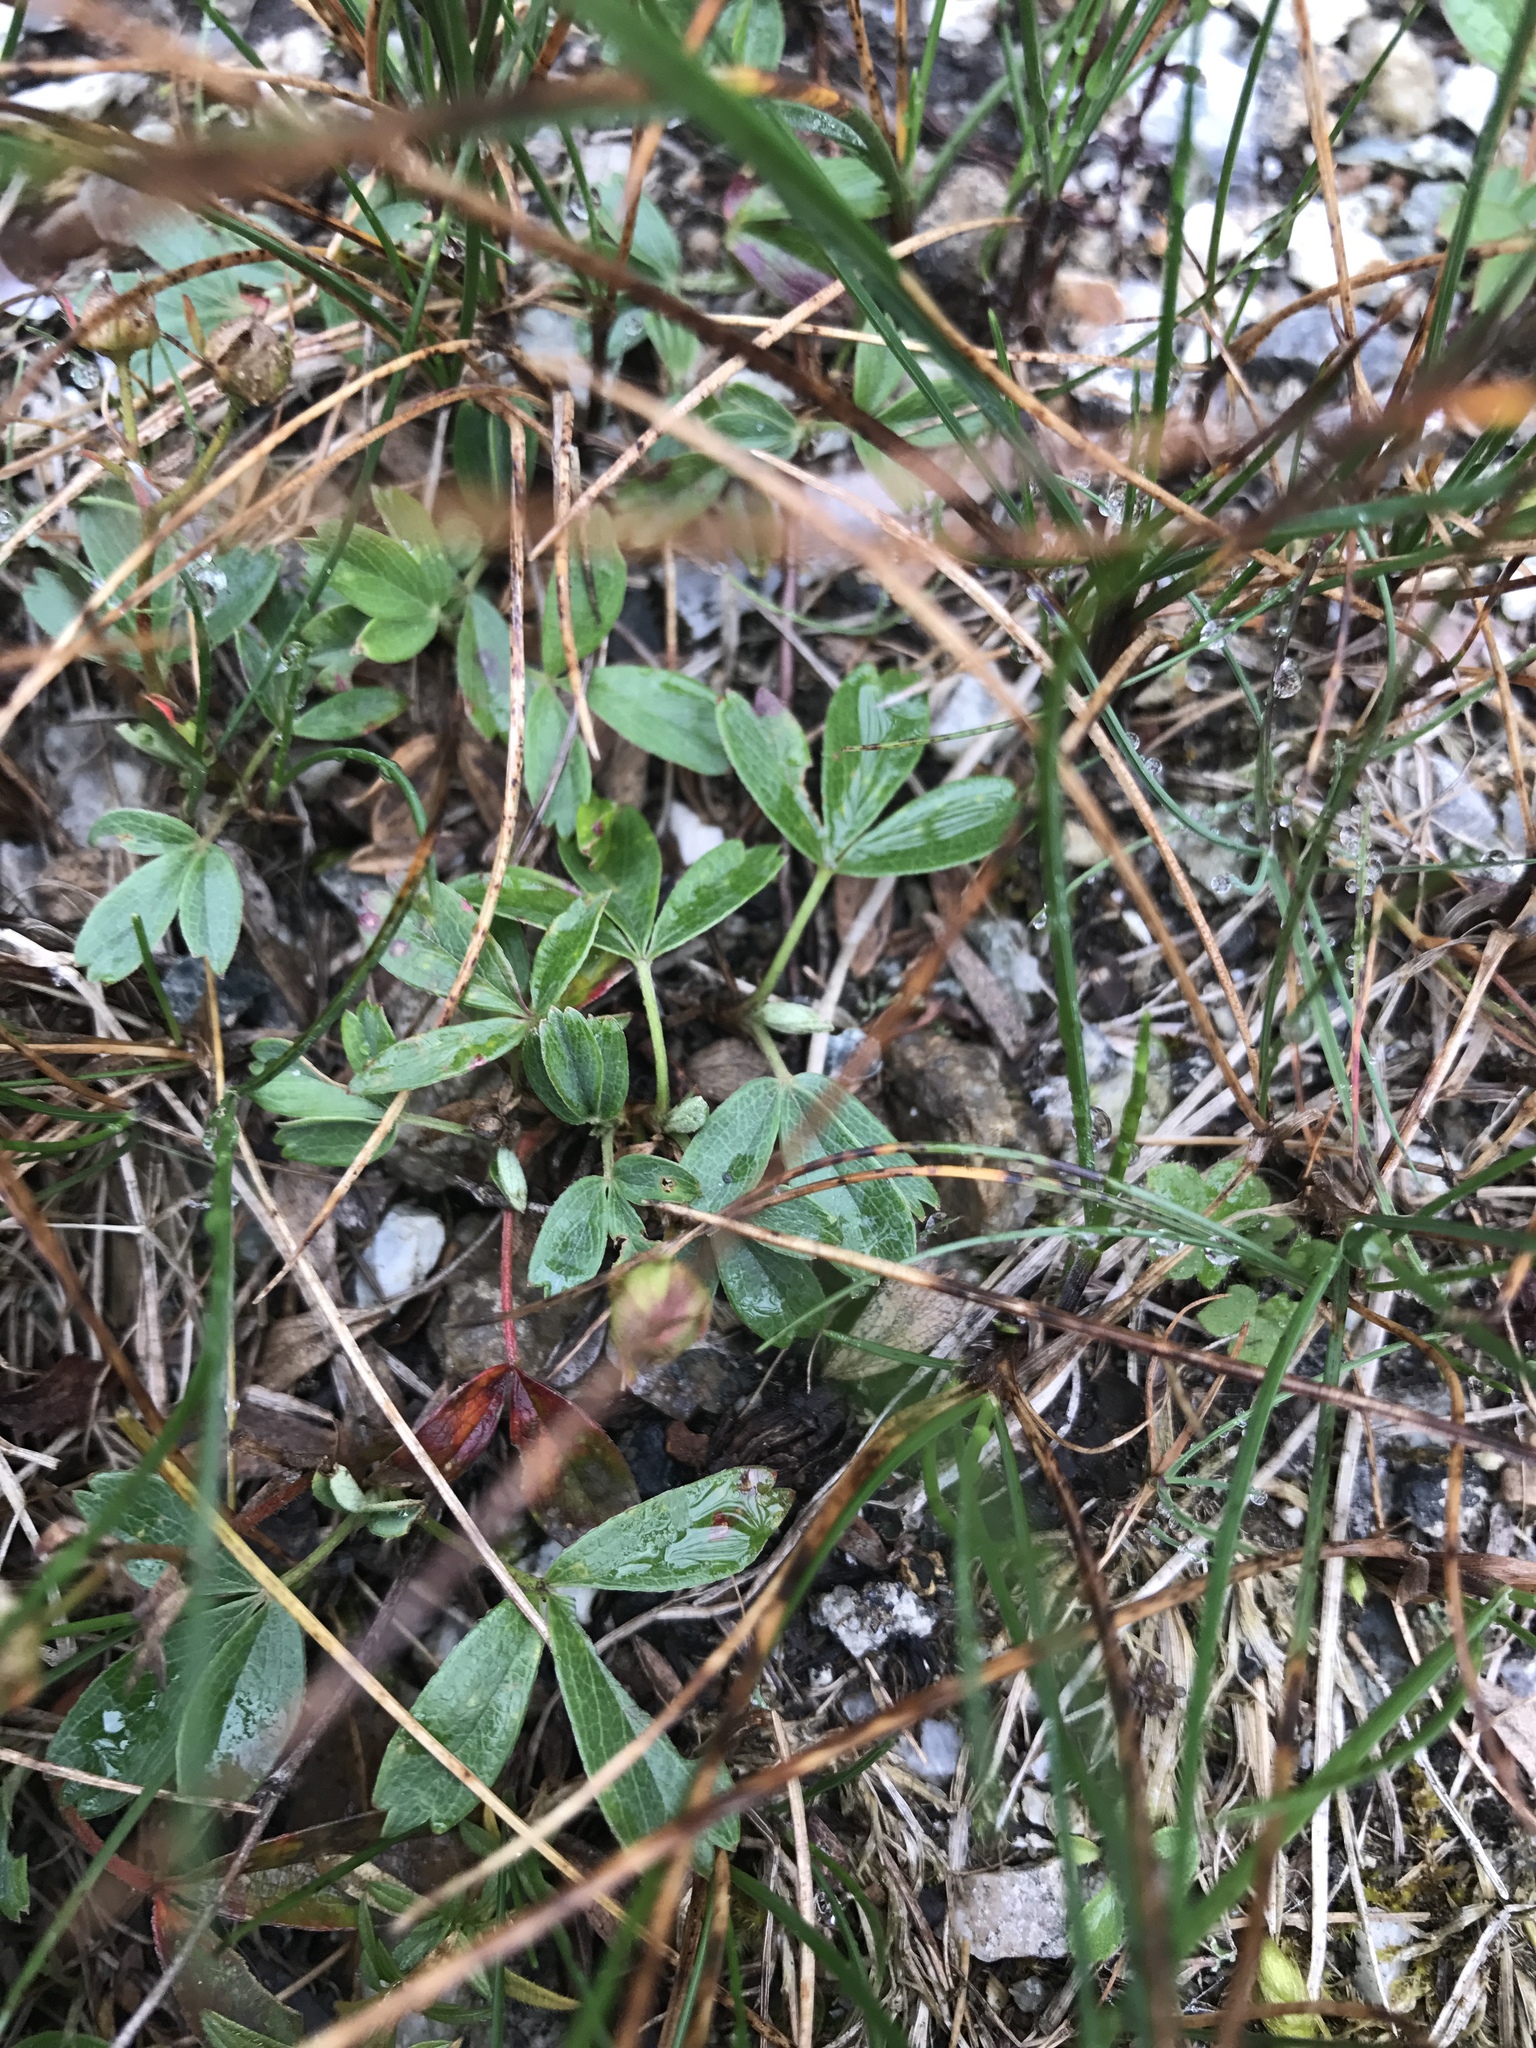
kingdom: Plantae
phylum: Tracheophyta
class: Magnoliopsida
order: Rosales
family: Rosaceae
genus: Sibbaldia
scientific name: Sibbaldia tridentata
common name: Three-toothed cinquefoil
